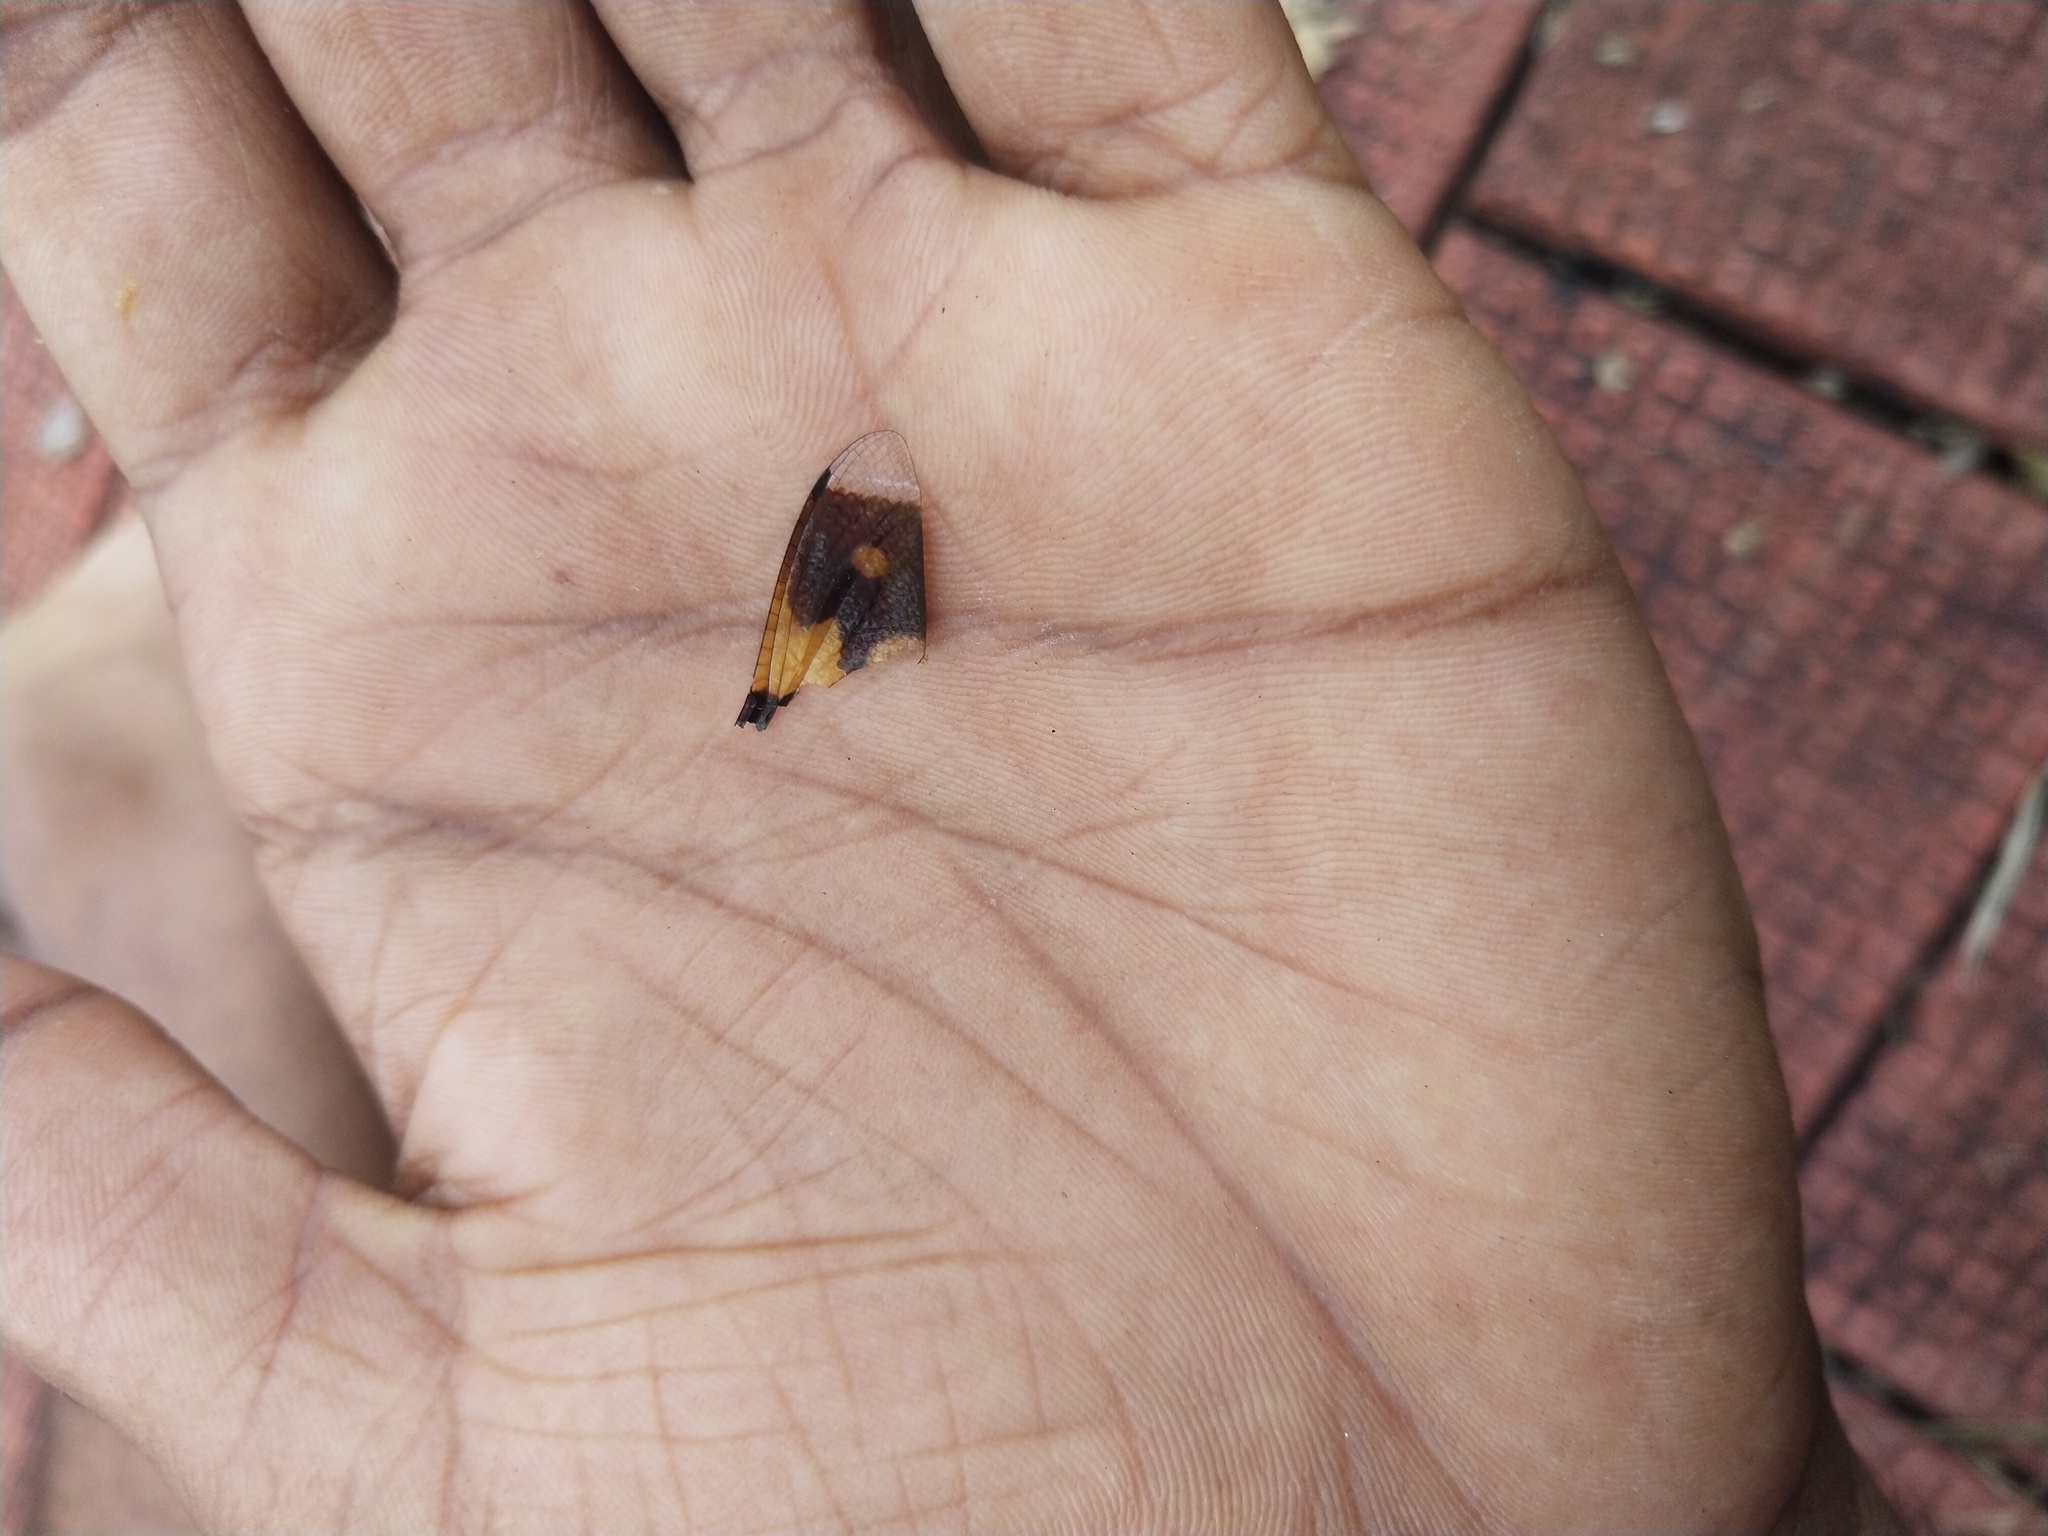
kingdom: Animalia
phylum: Arthropoda
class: Insecta
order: Odonata
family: Libellulidae
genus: Rhyothemis
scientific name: Rhyothemis variegata
